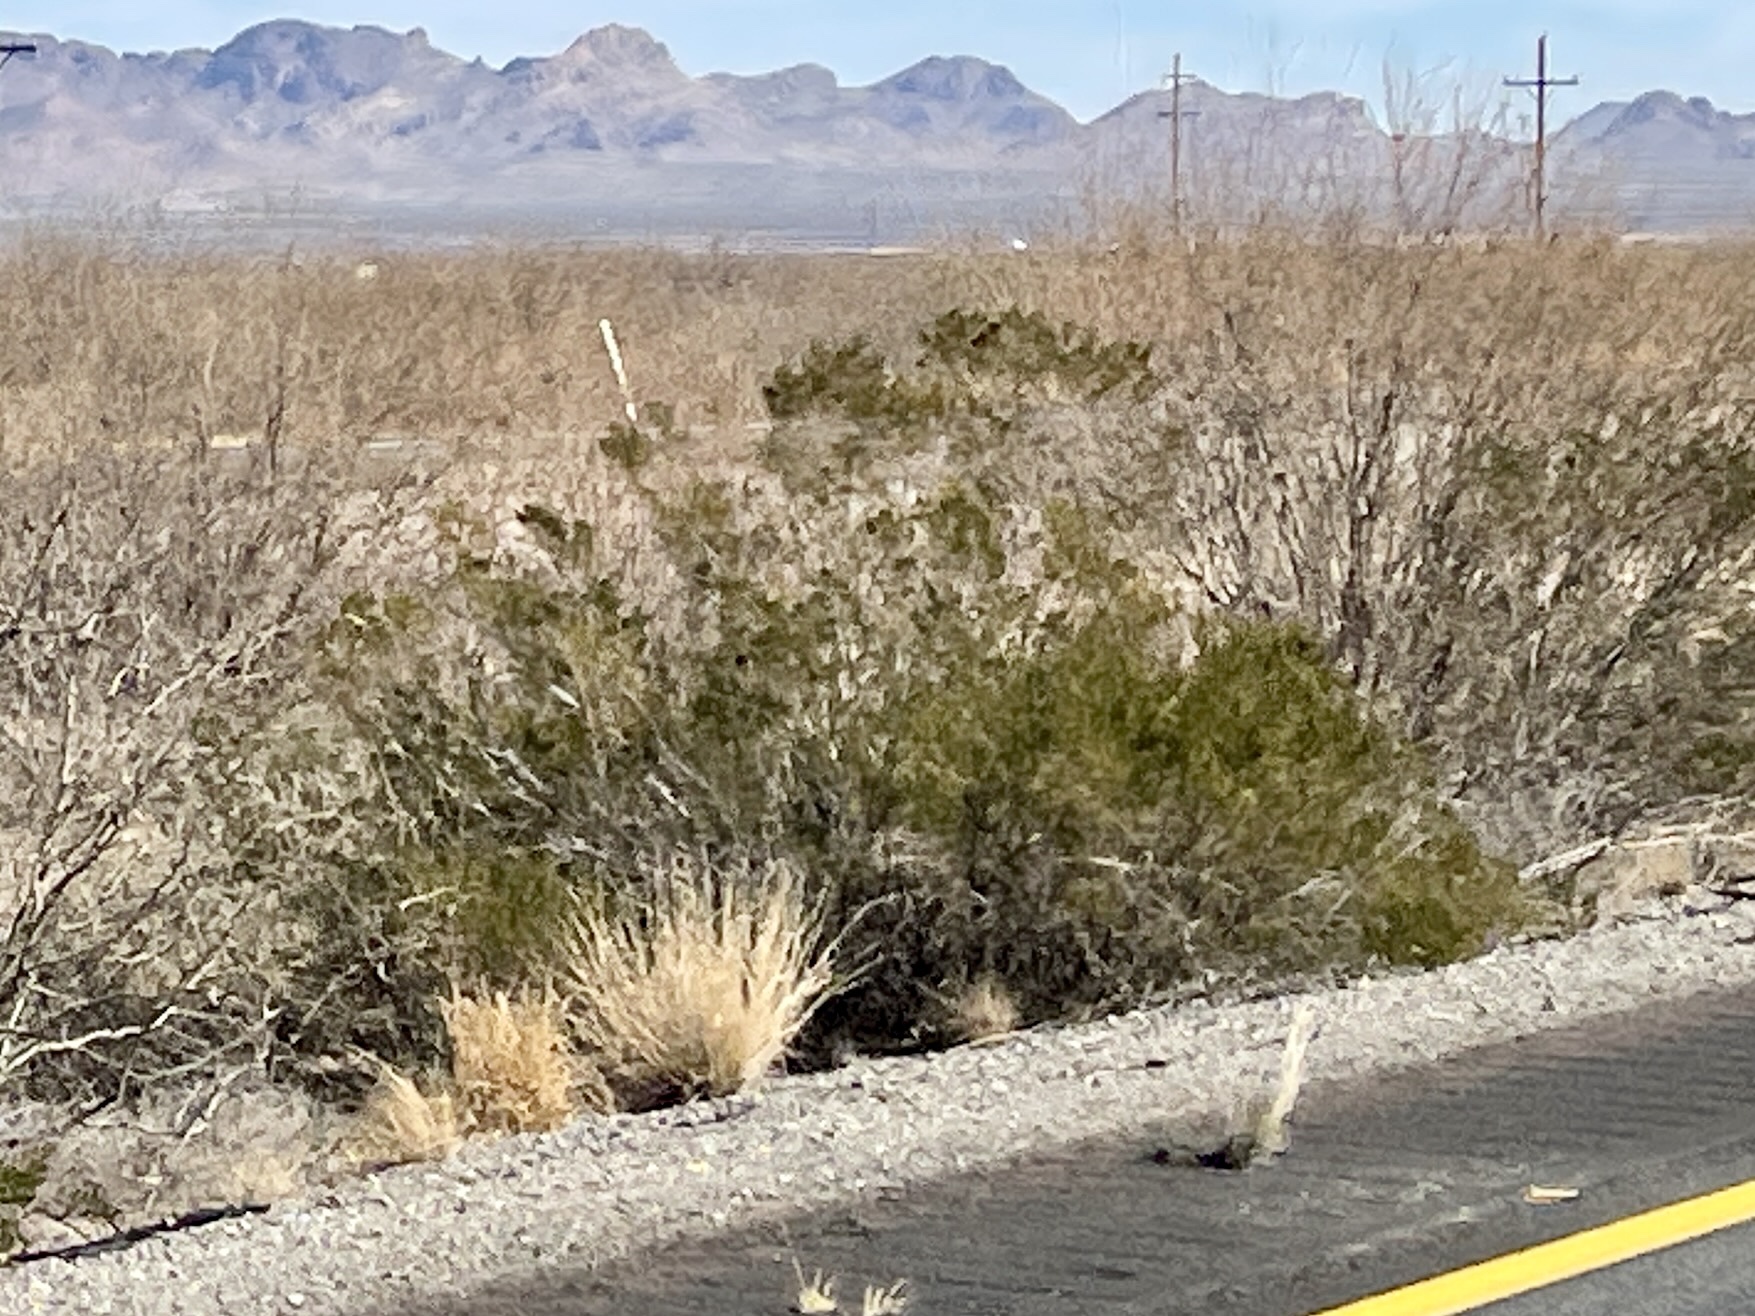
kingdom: Plantae
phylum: Tracheophyta
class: Magnoliopsida
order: Zygophyllales
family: Zygophyllaceae
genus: Larrea
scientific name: Larrea tridentata
